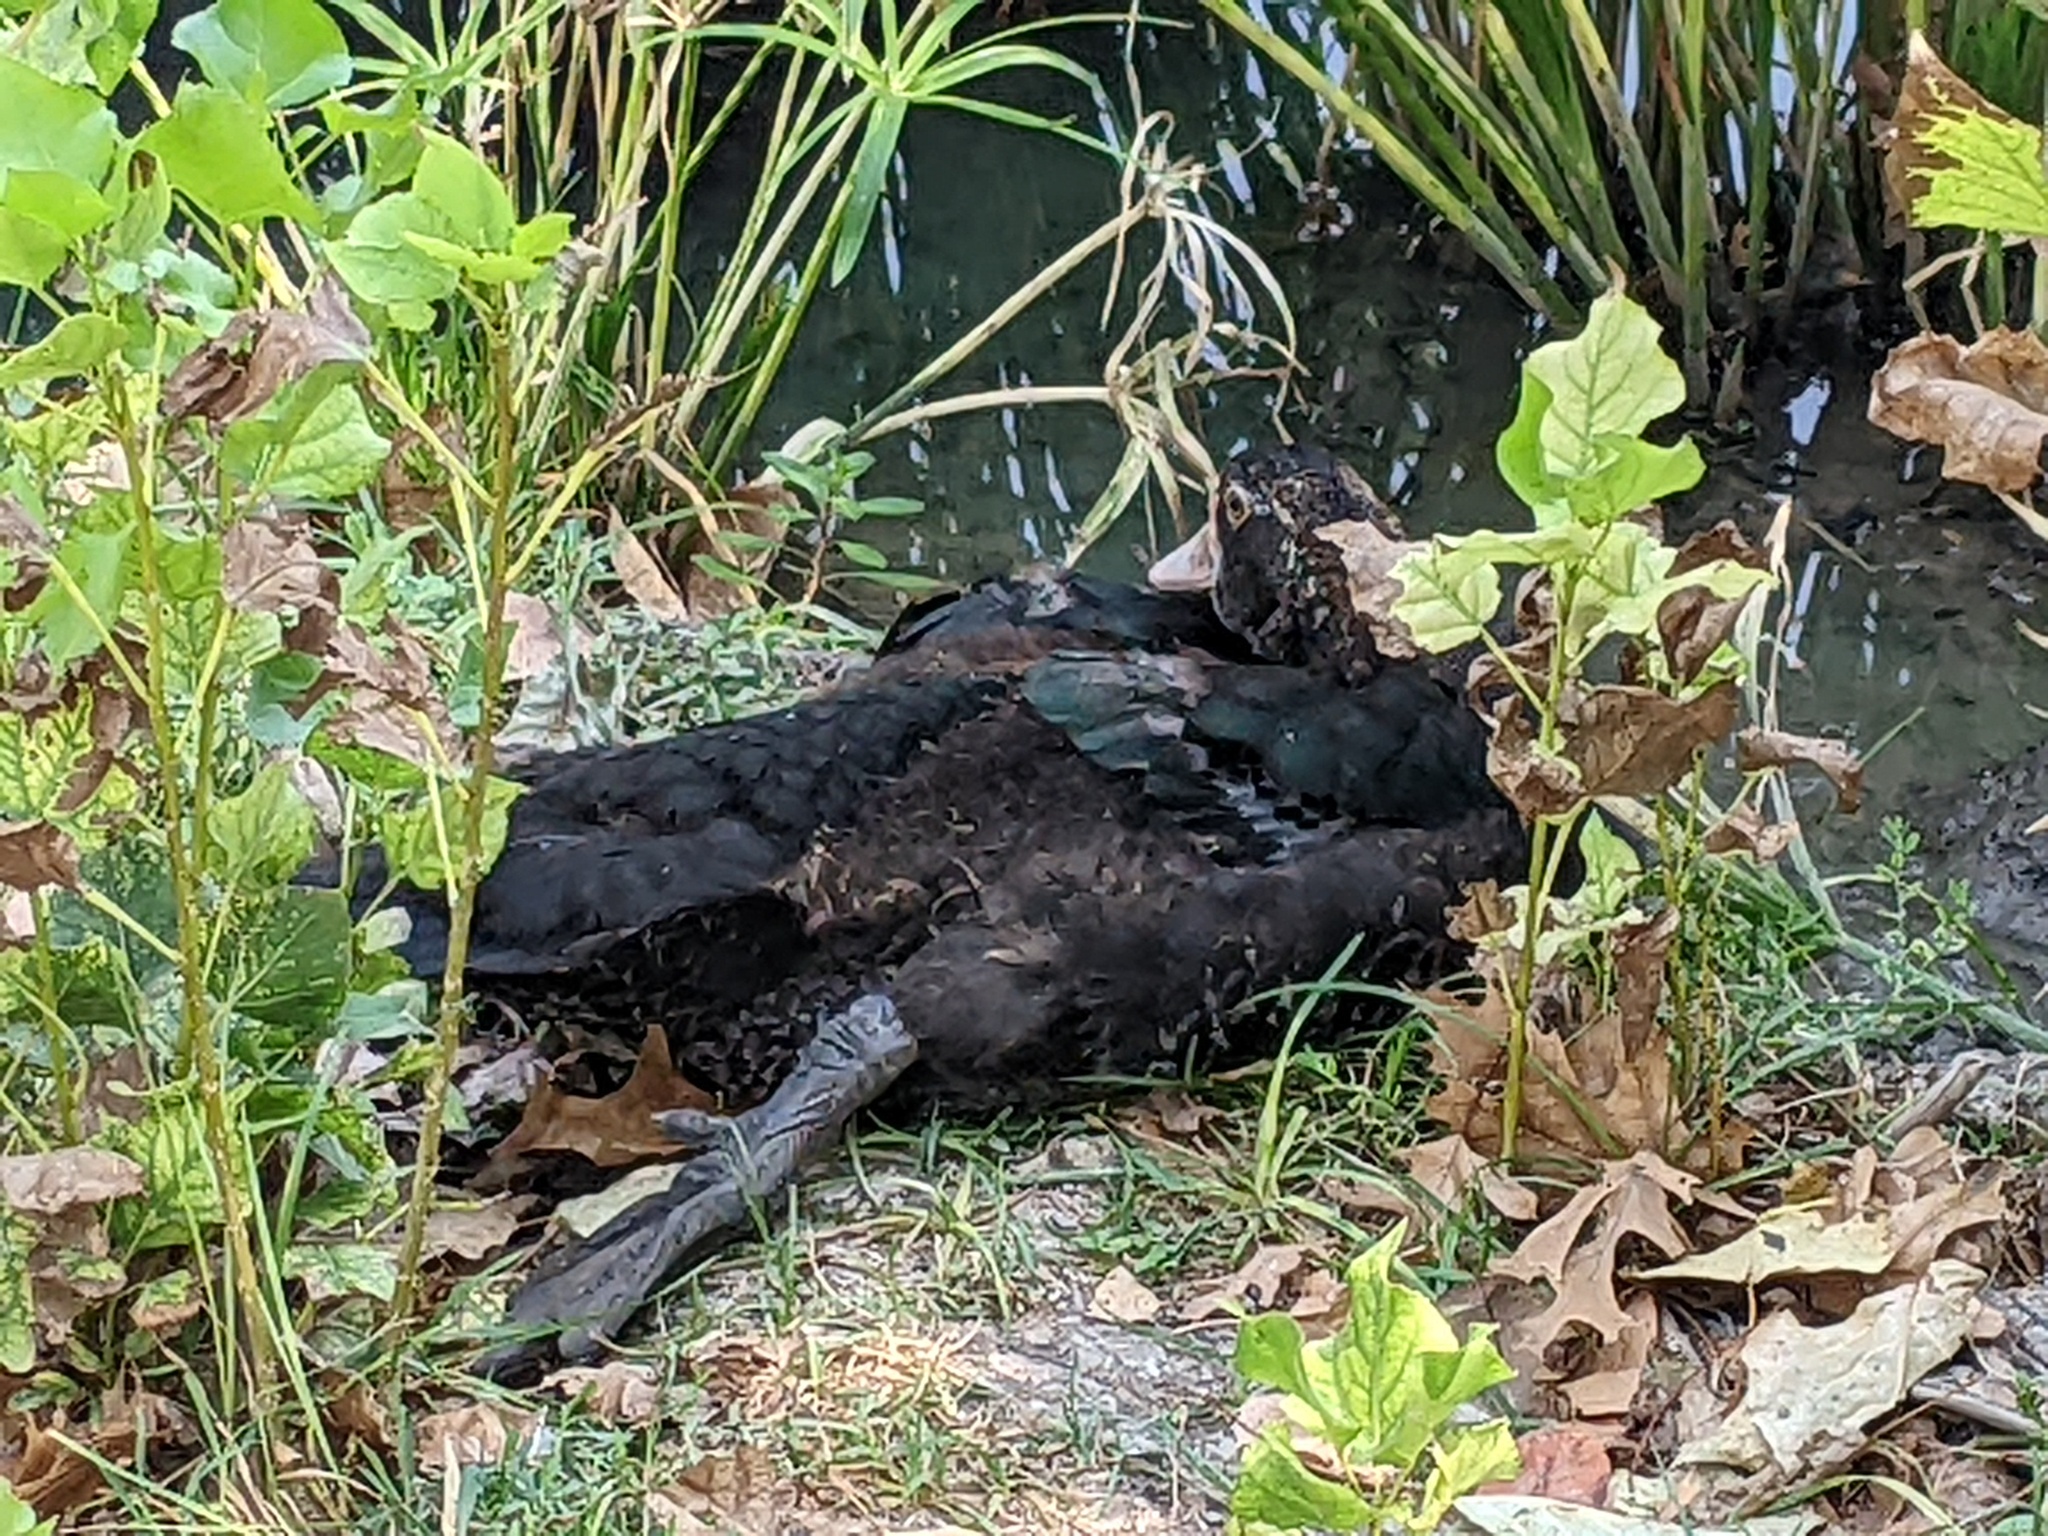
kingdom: Animalia
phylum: Chordata
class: Aves
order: Anseriformes
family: Anatidae
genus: Cairina
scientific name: Cairina moschata
